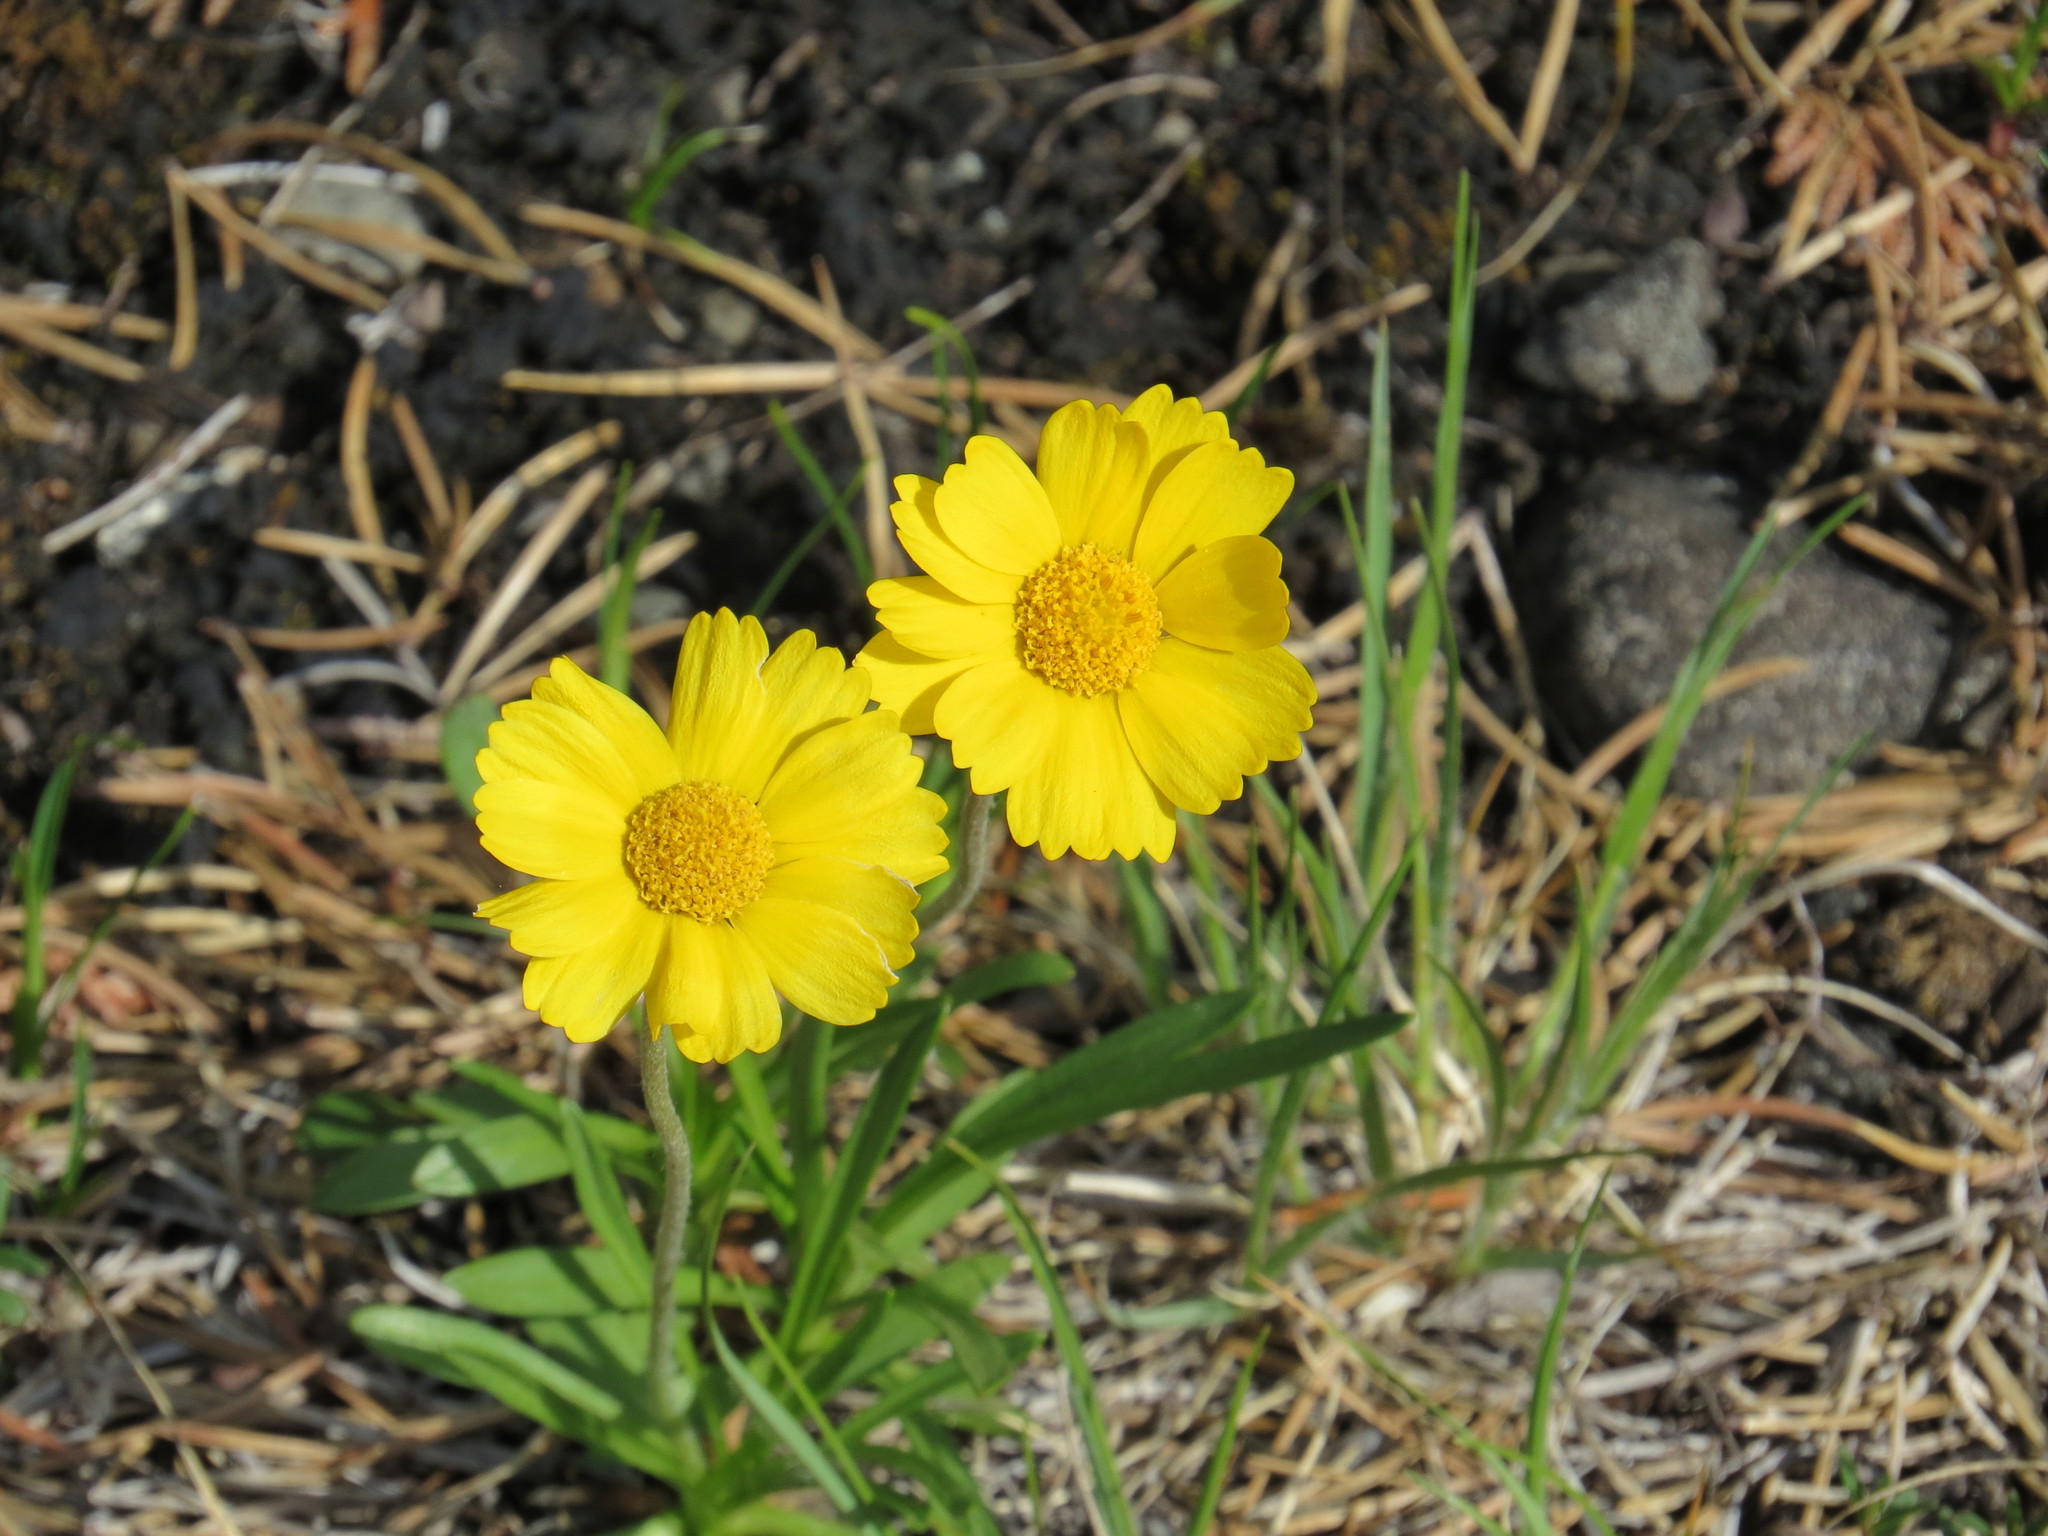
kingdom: Plantae
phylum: Tracheophyta
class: Magnoliopsida
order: Asterales
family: Asteraceae
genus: Tetraneuris
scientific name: Tetraneuris herbacea
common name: Lakeside daisy
